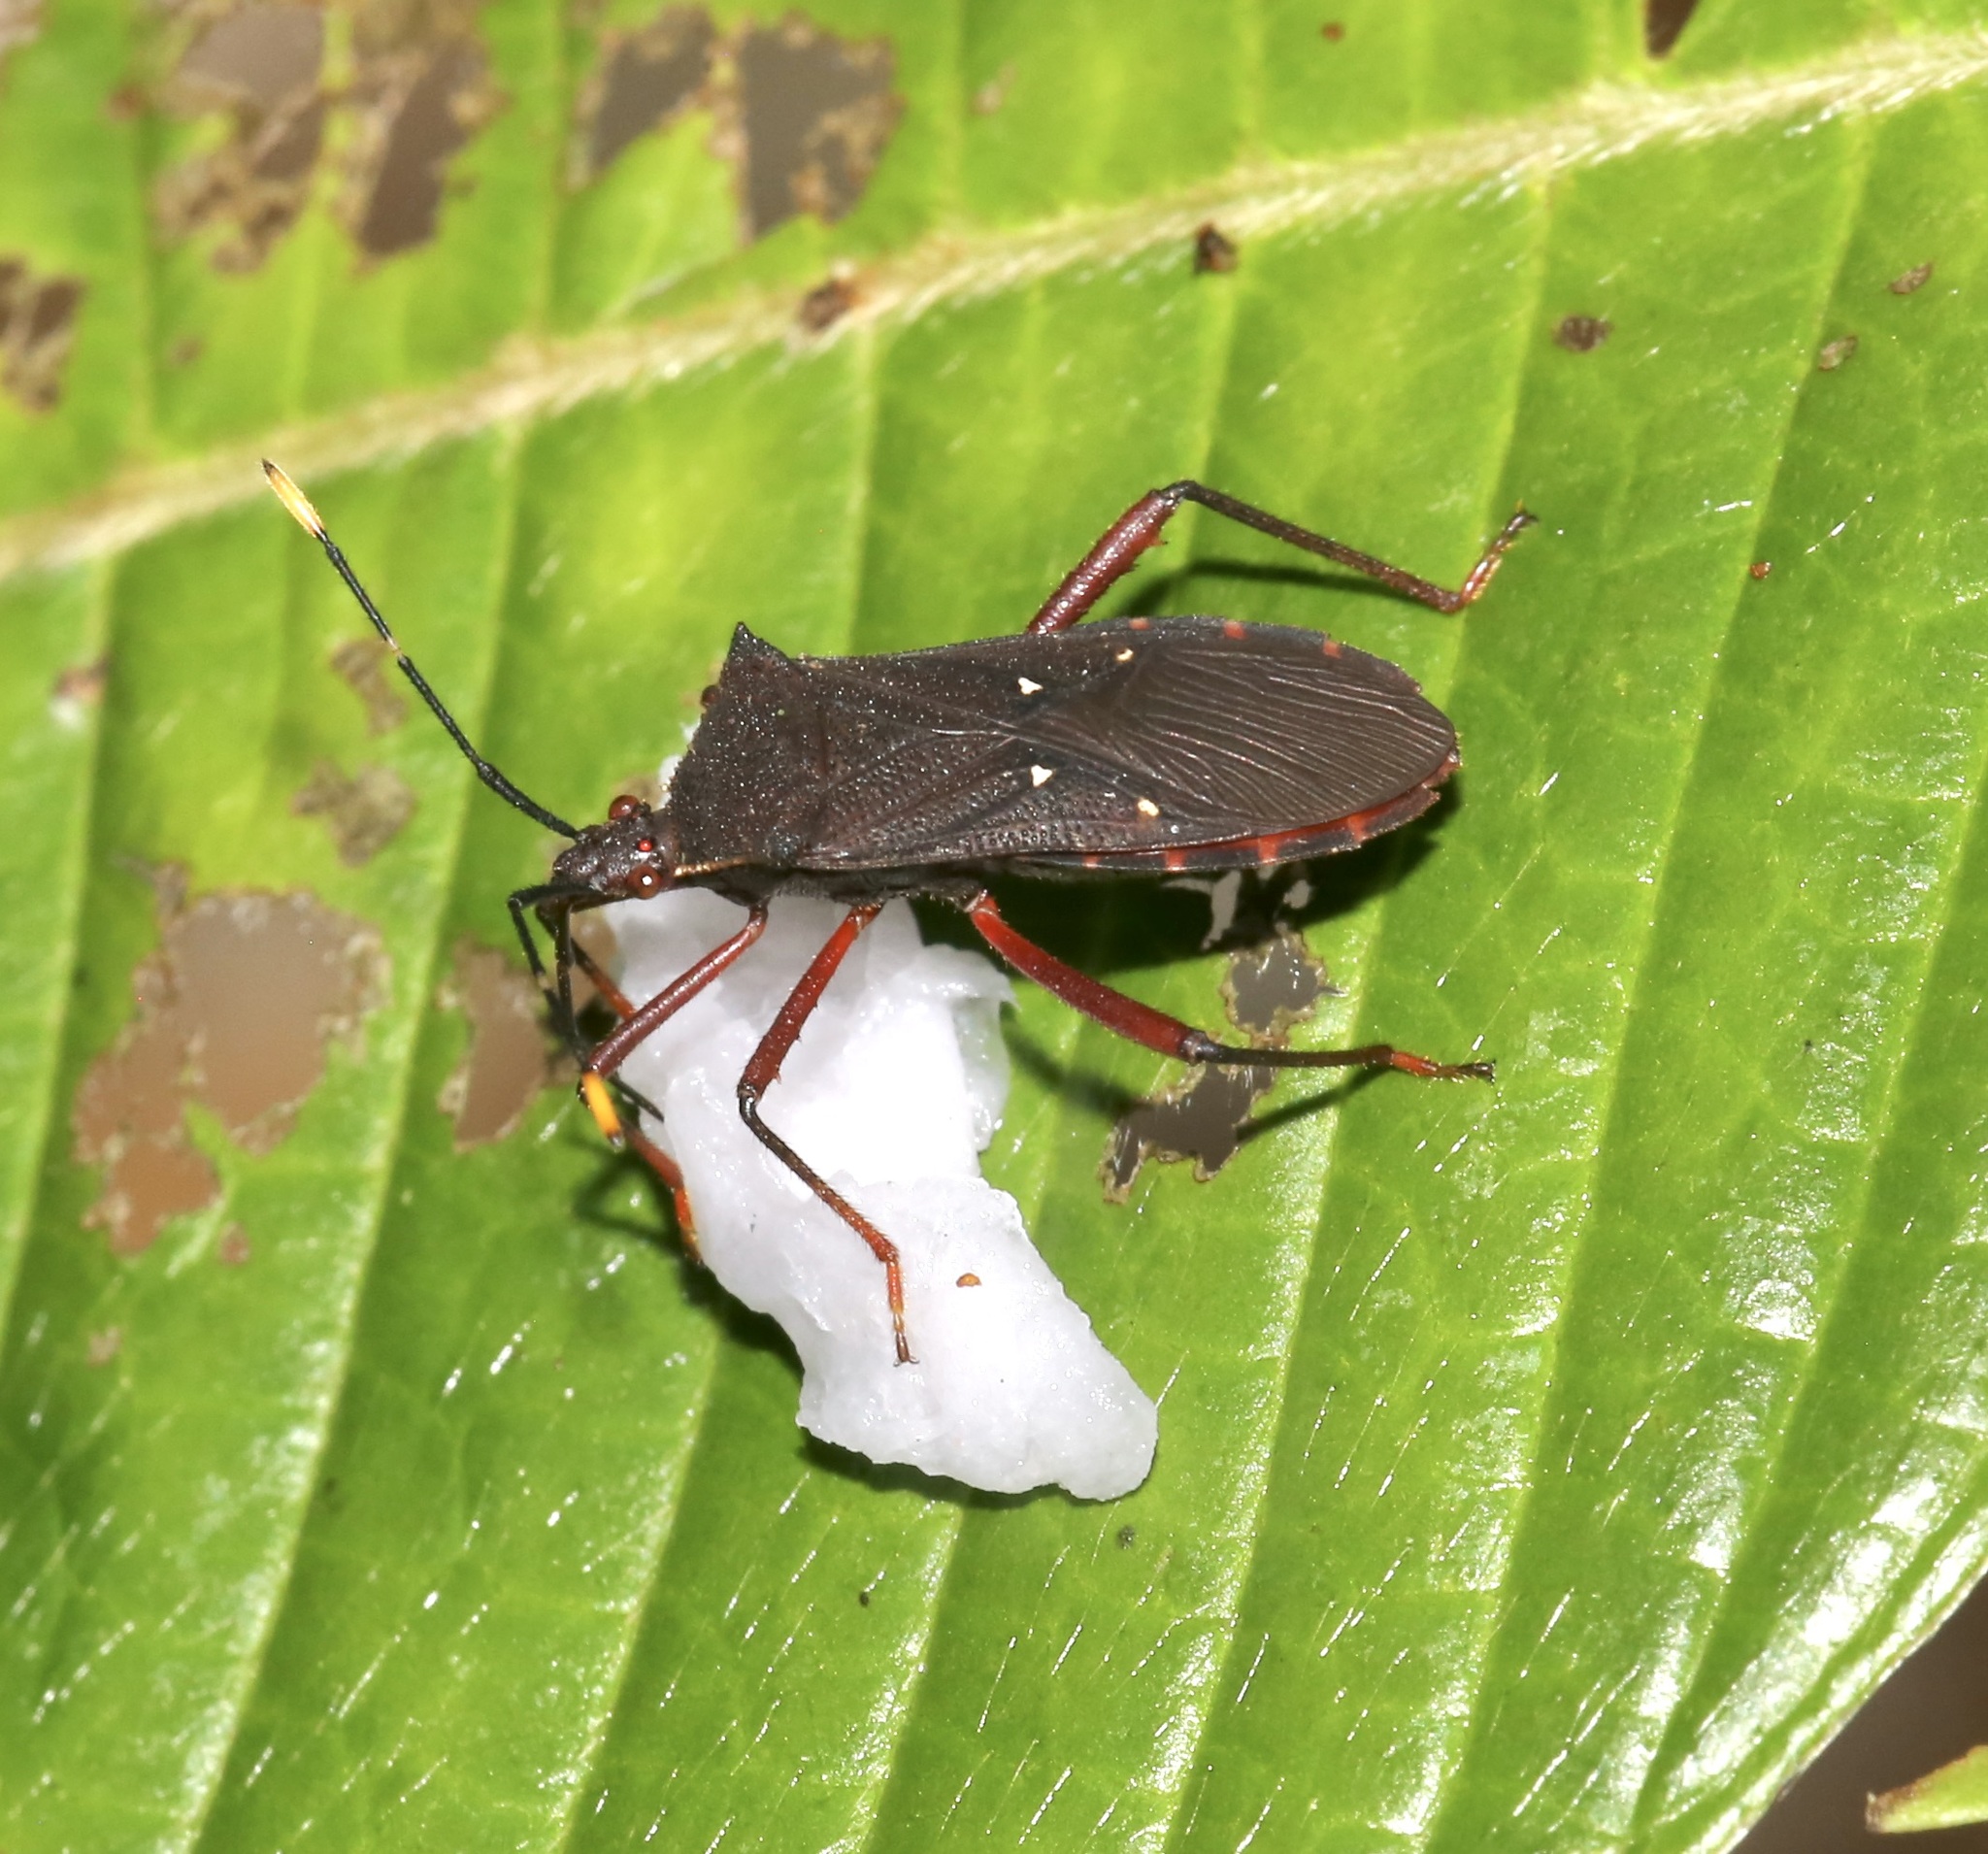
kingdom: Animalia
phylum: Arthropoda
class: Insecta
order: Hemiptera
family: Coreidae
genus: Leptoscelis
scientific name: Leptoscelis quadrisignatus
